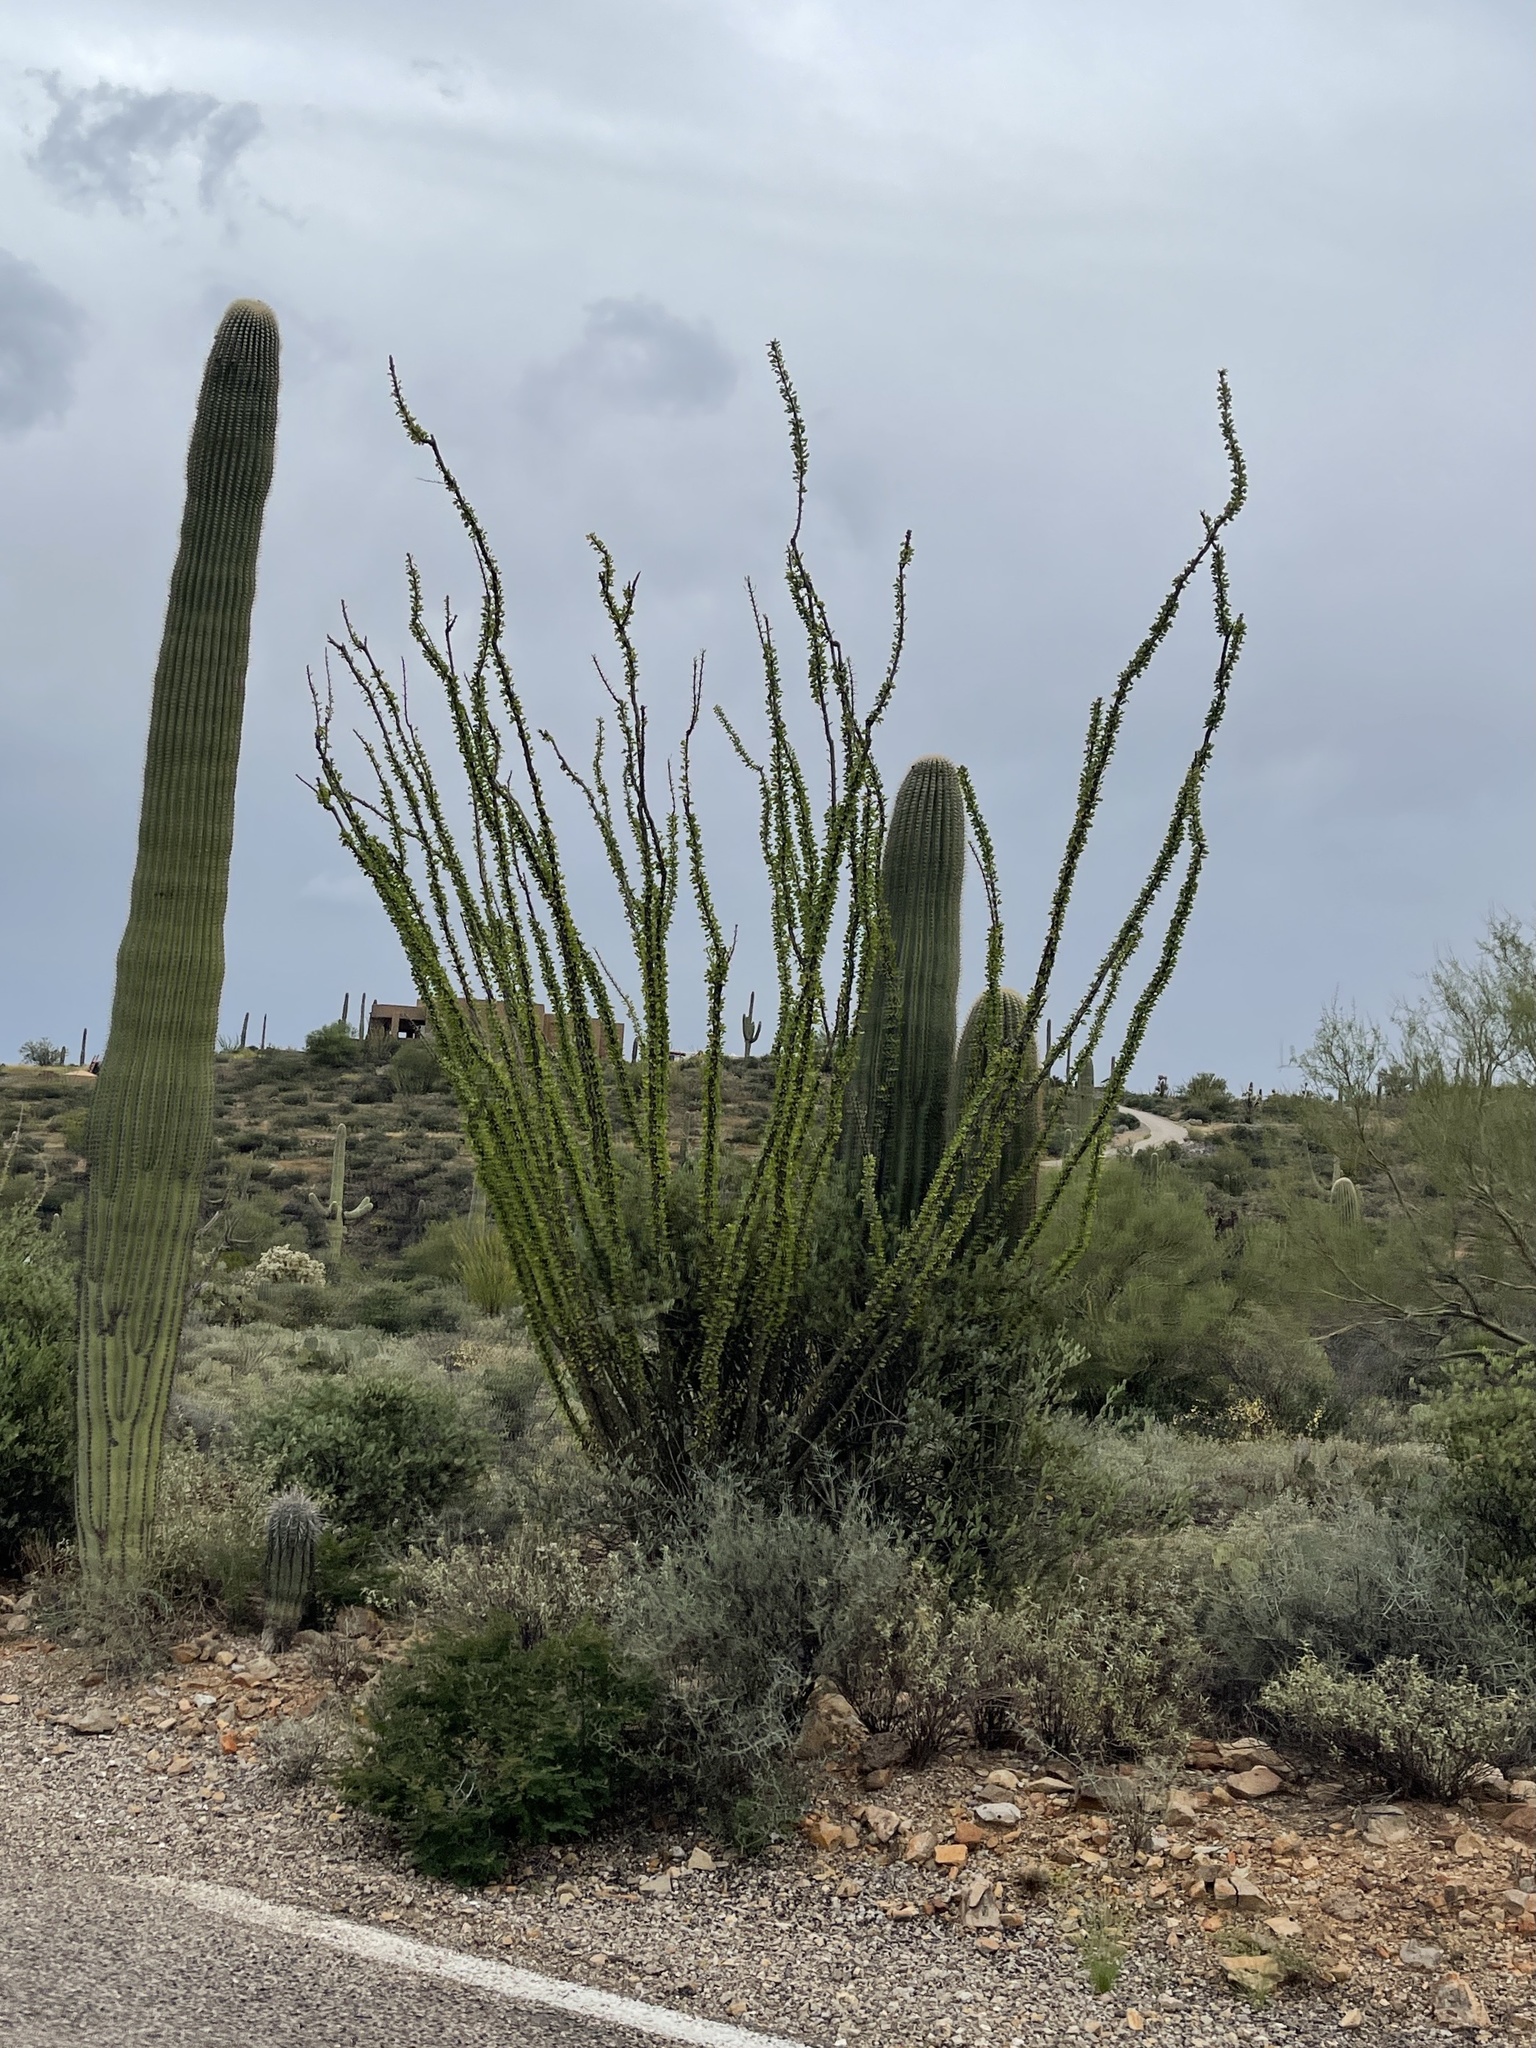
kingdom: Plantae
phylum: Tracheophyta
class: Magnoliopsida
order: Ericales
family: Fouquieriaceae
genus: Fouquieria
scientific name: Fouquieria splendens
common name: Vine-cactus
